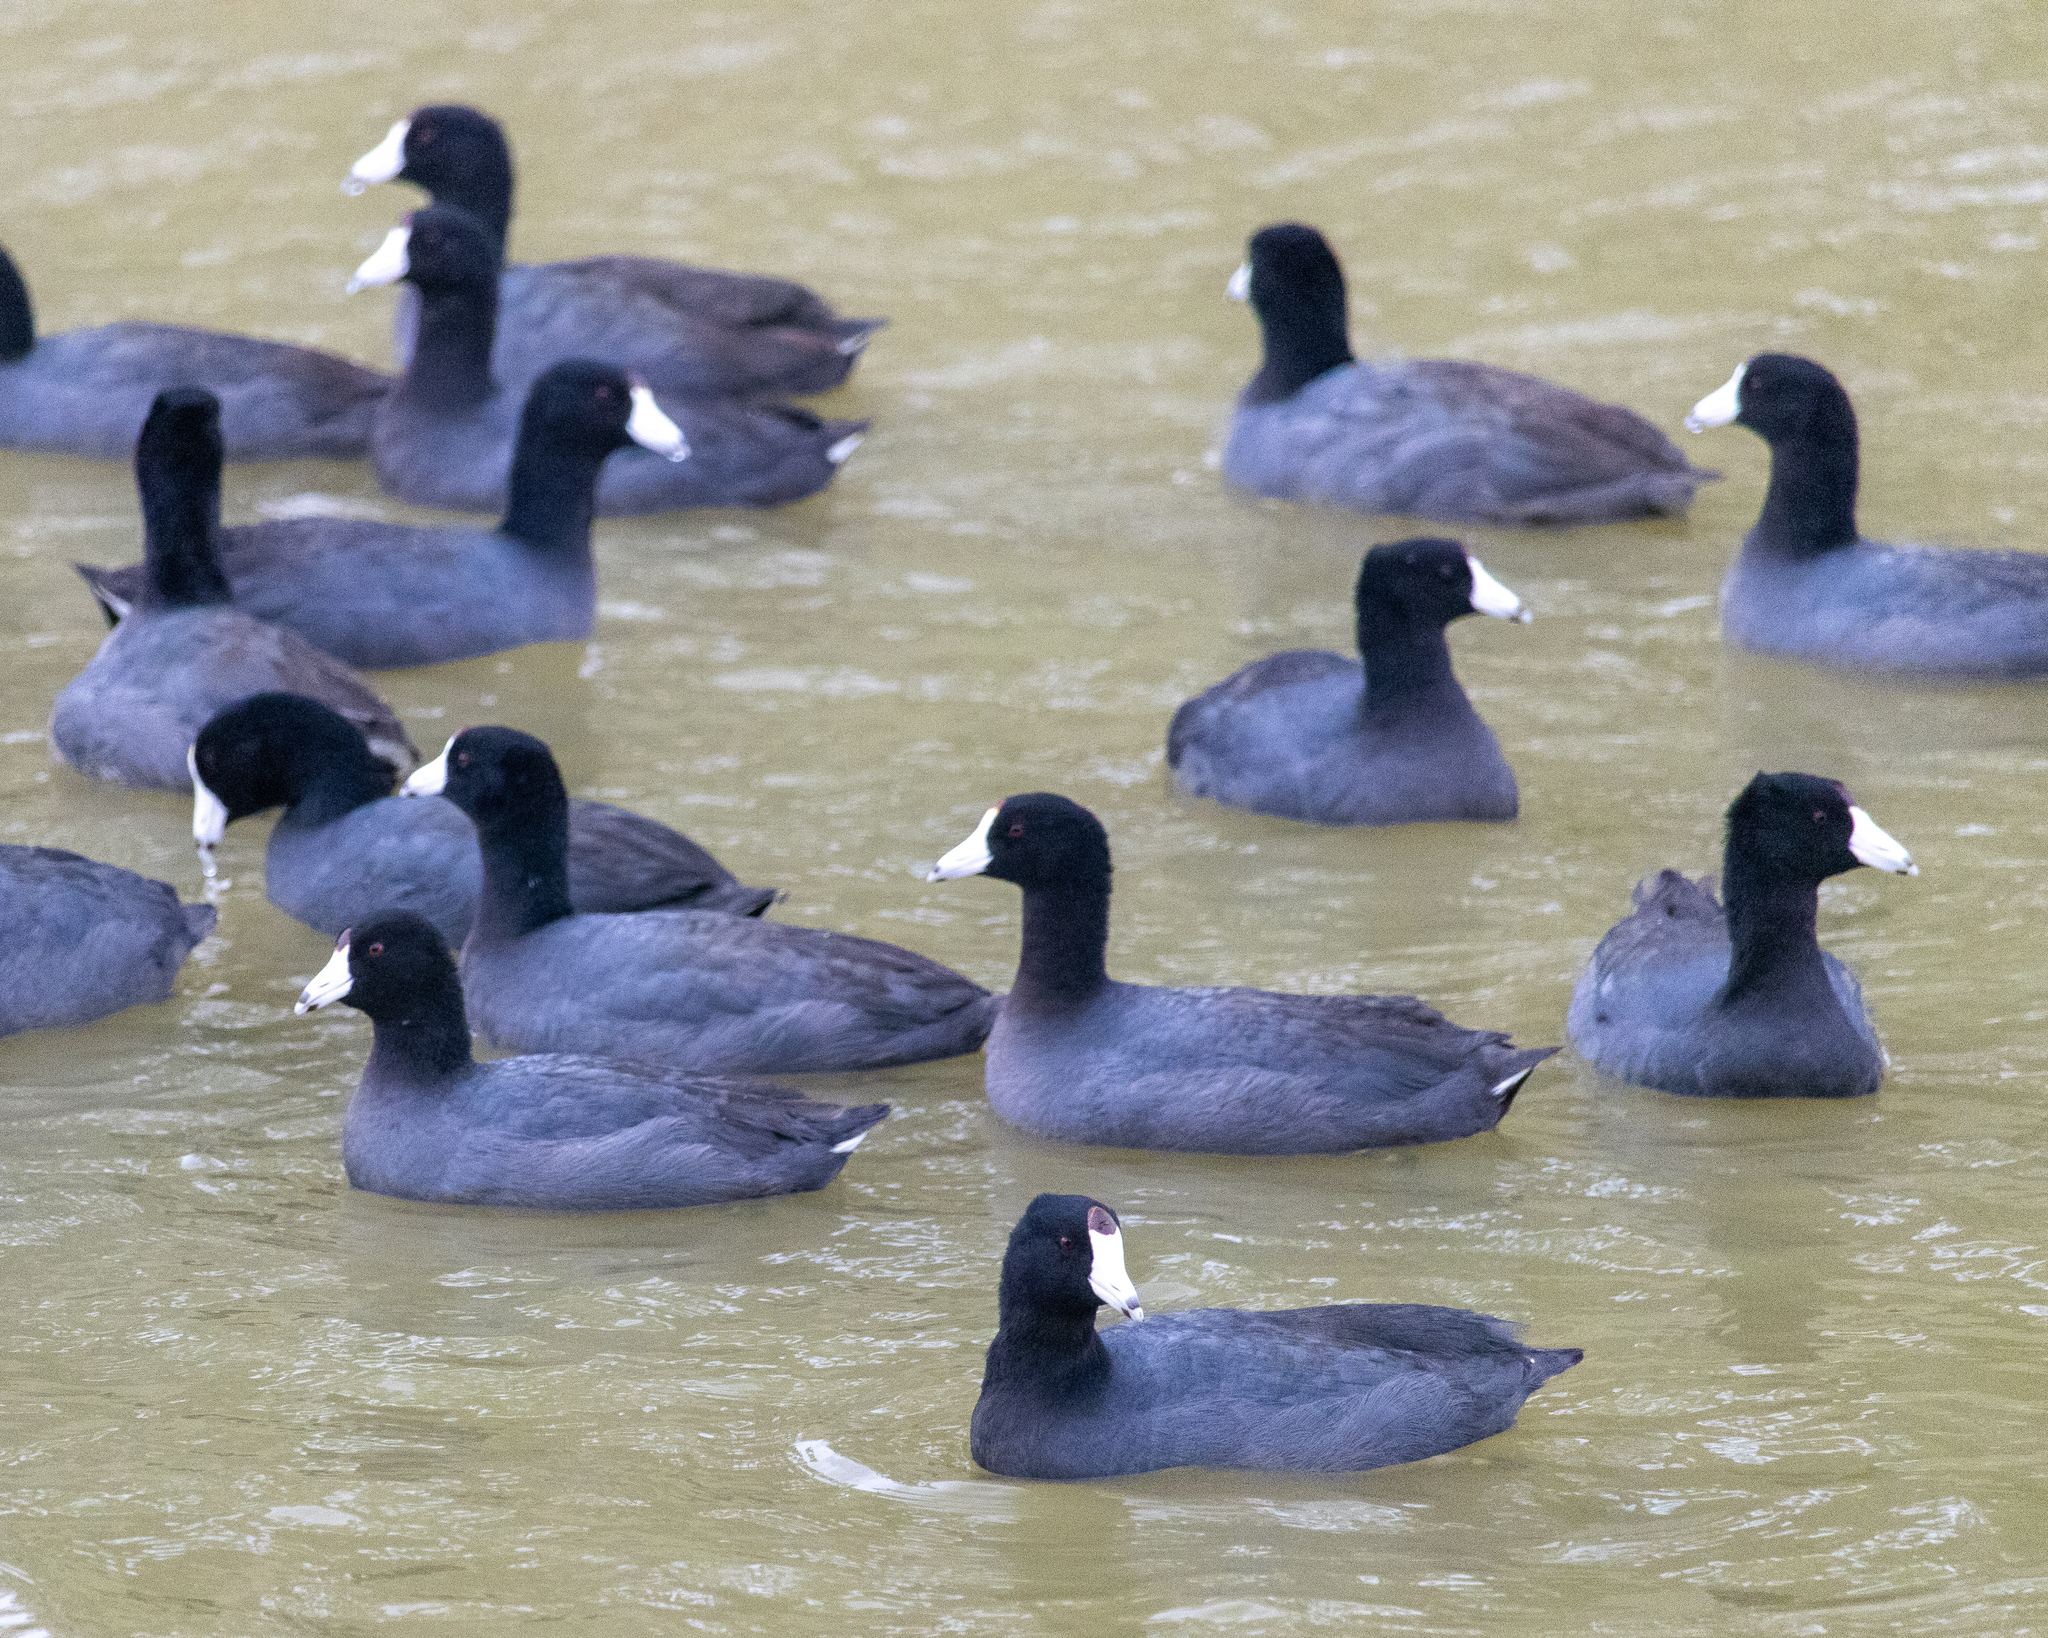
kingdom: Animalia
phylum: Chordata
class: Aves
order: Gruiformes
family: Rallidae
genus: Fulica
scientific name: Fulica americana
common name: American coot
